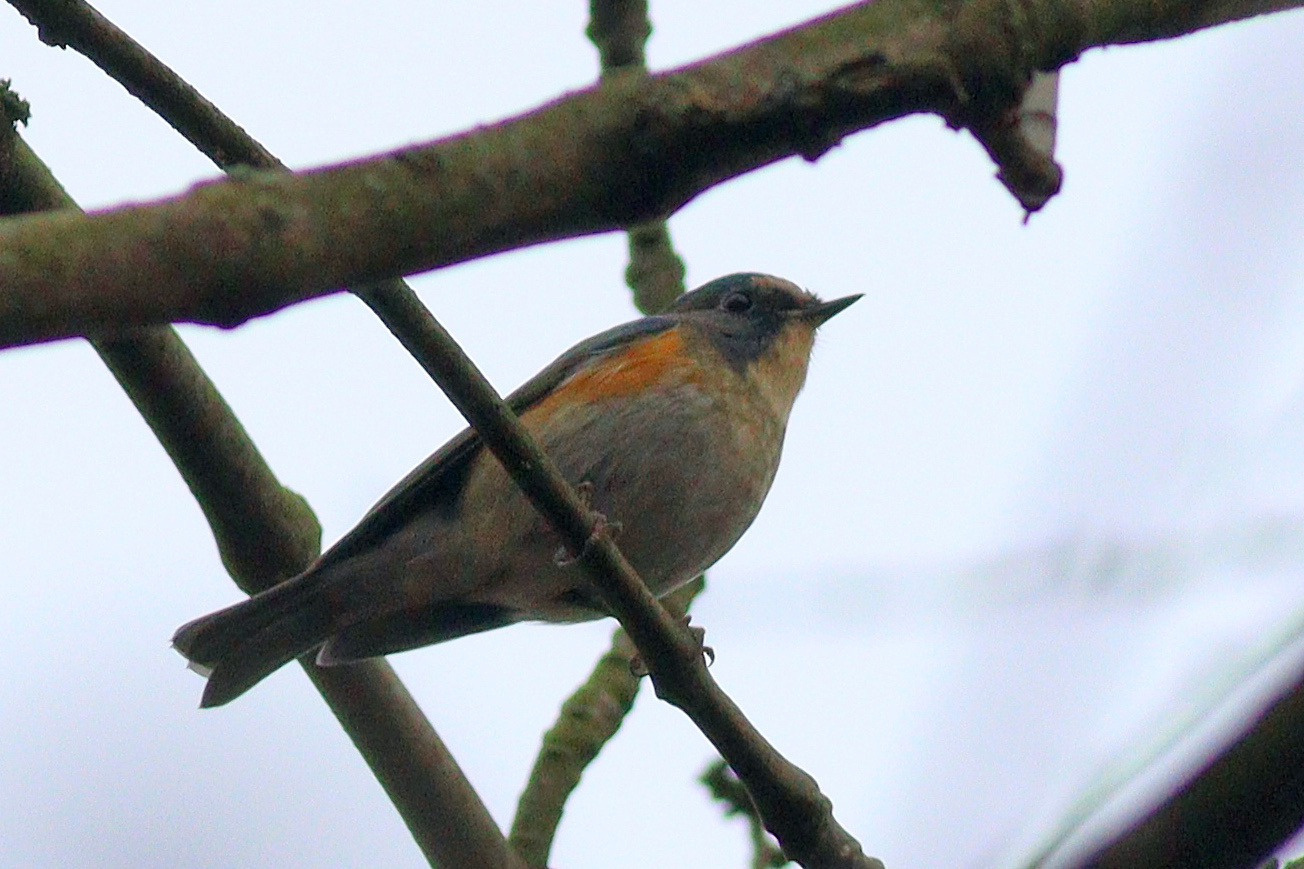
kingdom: Animalia
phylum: Chordata
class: Aves
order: Passeriformes
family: Muscicapidae
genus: Tarsiger
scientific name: Tarsiger cyanurus
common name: Red-flanked bluetail
